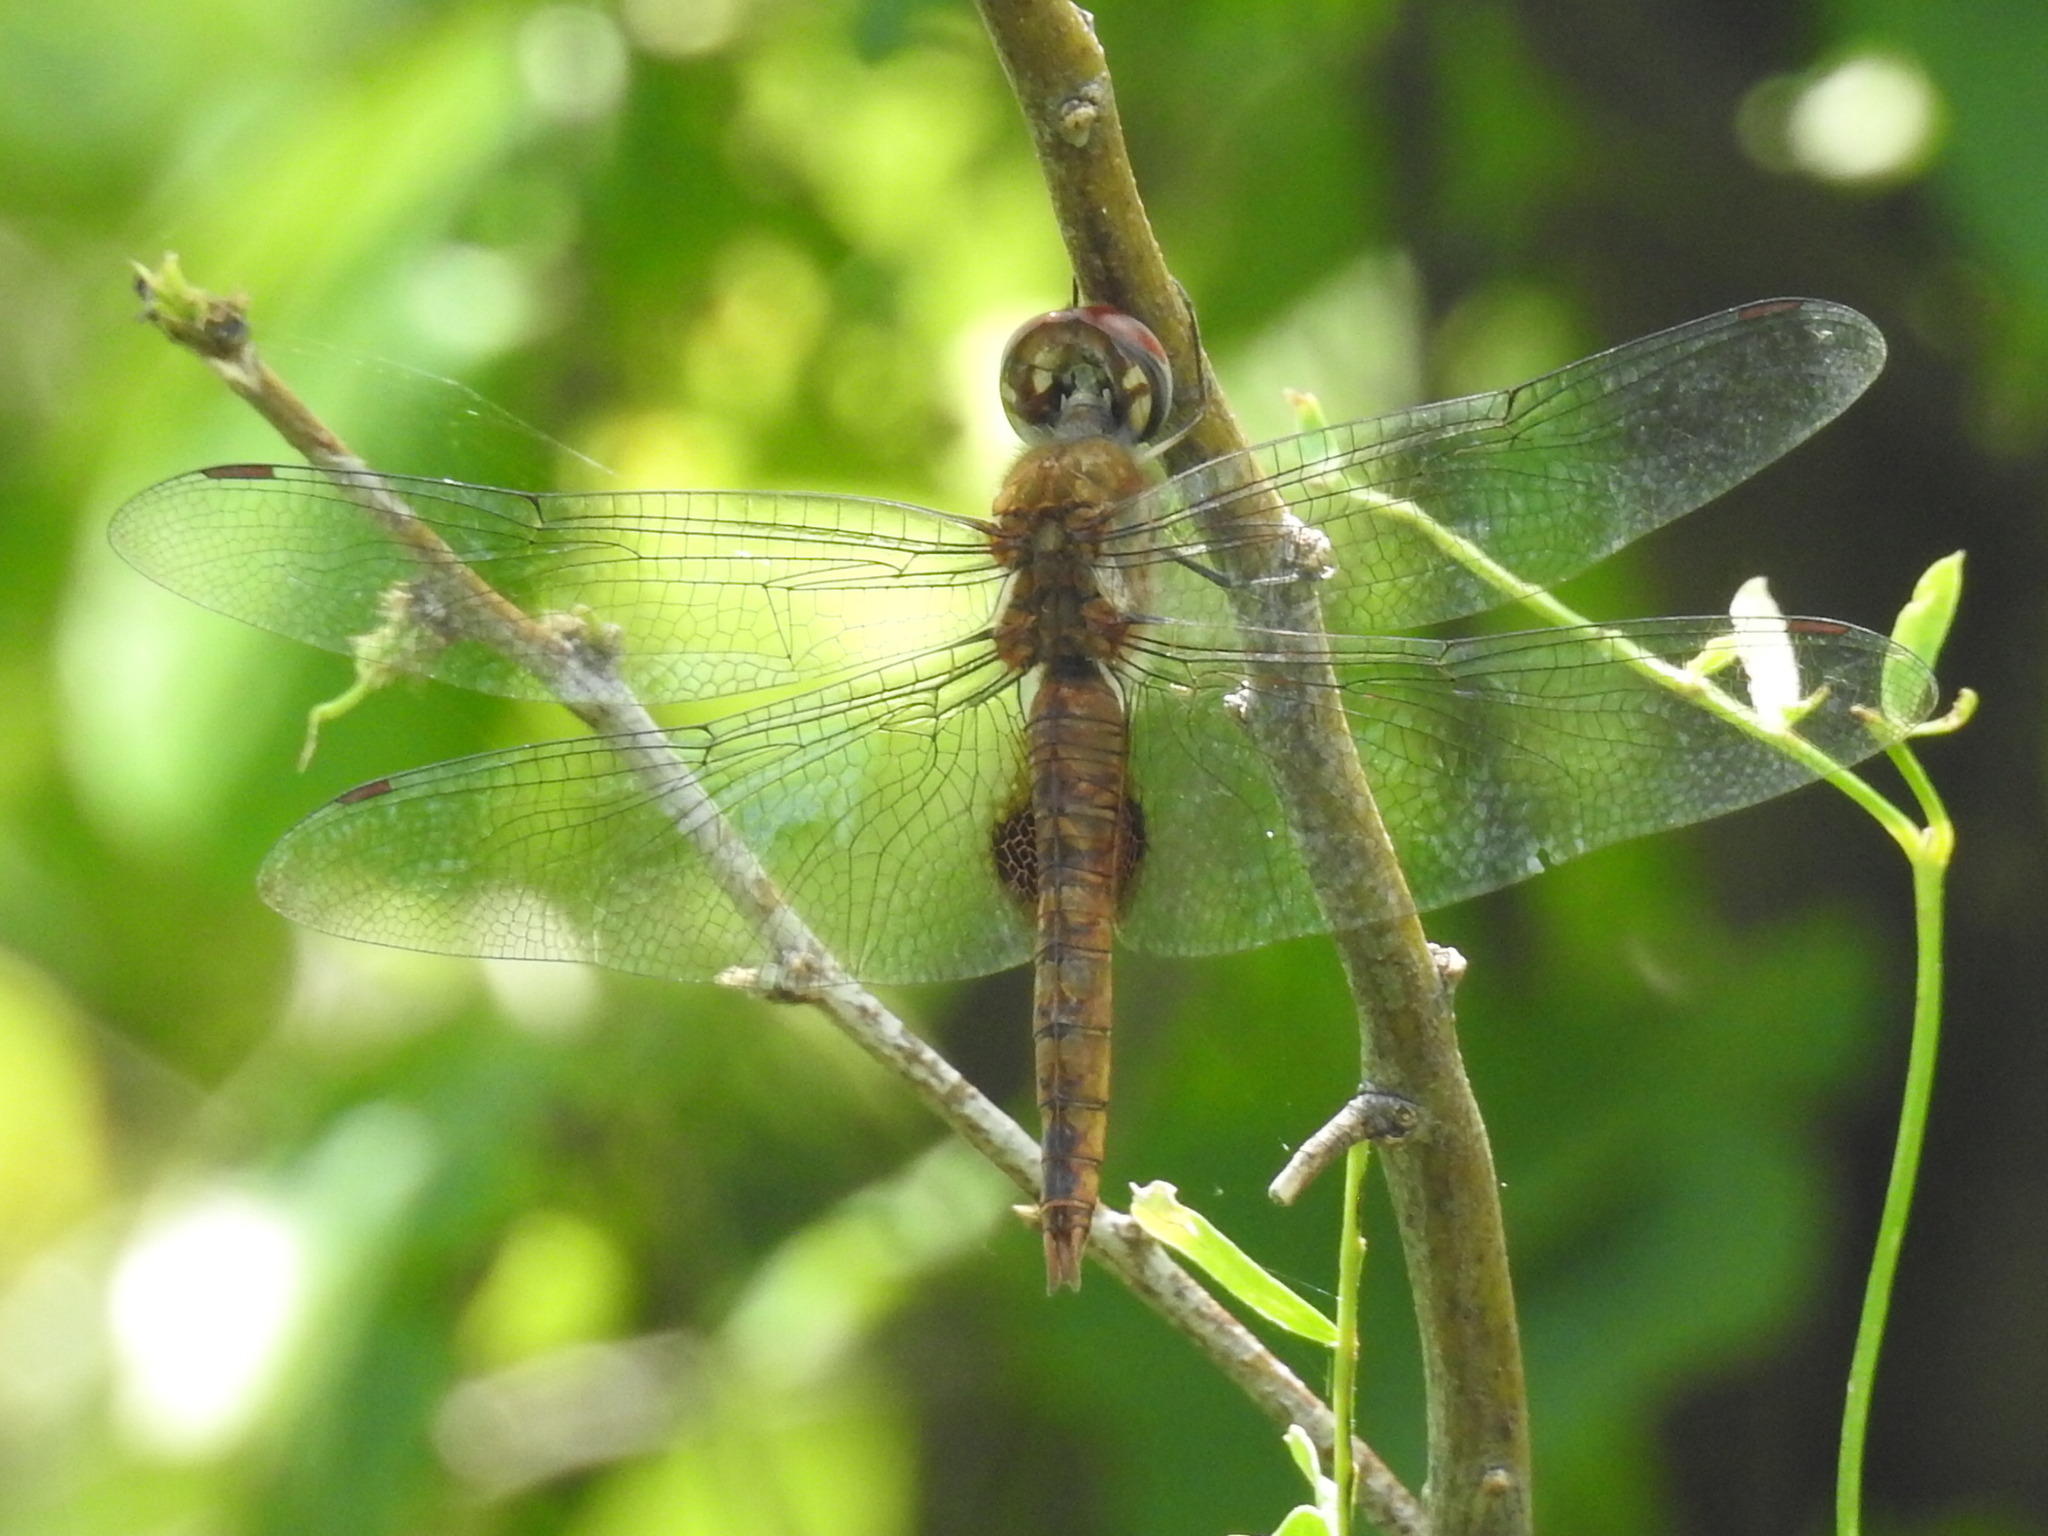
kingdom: Animalia
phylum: Arthropoda
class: Insecta
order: Odonata
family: Libellulidae
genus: Pantala
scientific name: Pantala hymenaea
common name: Spot-winged glider
